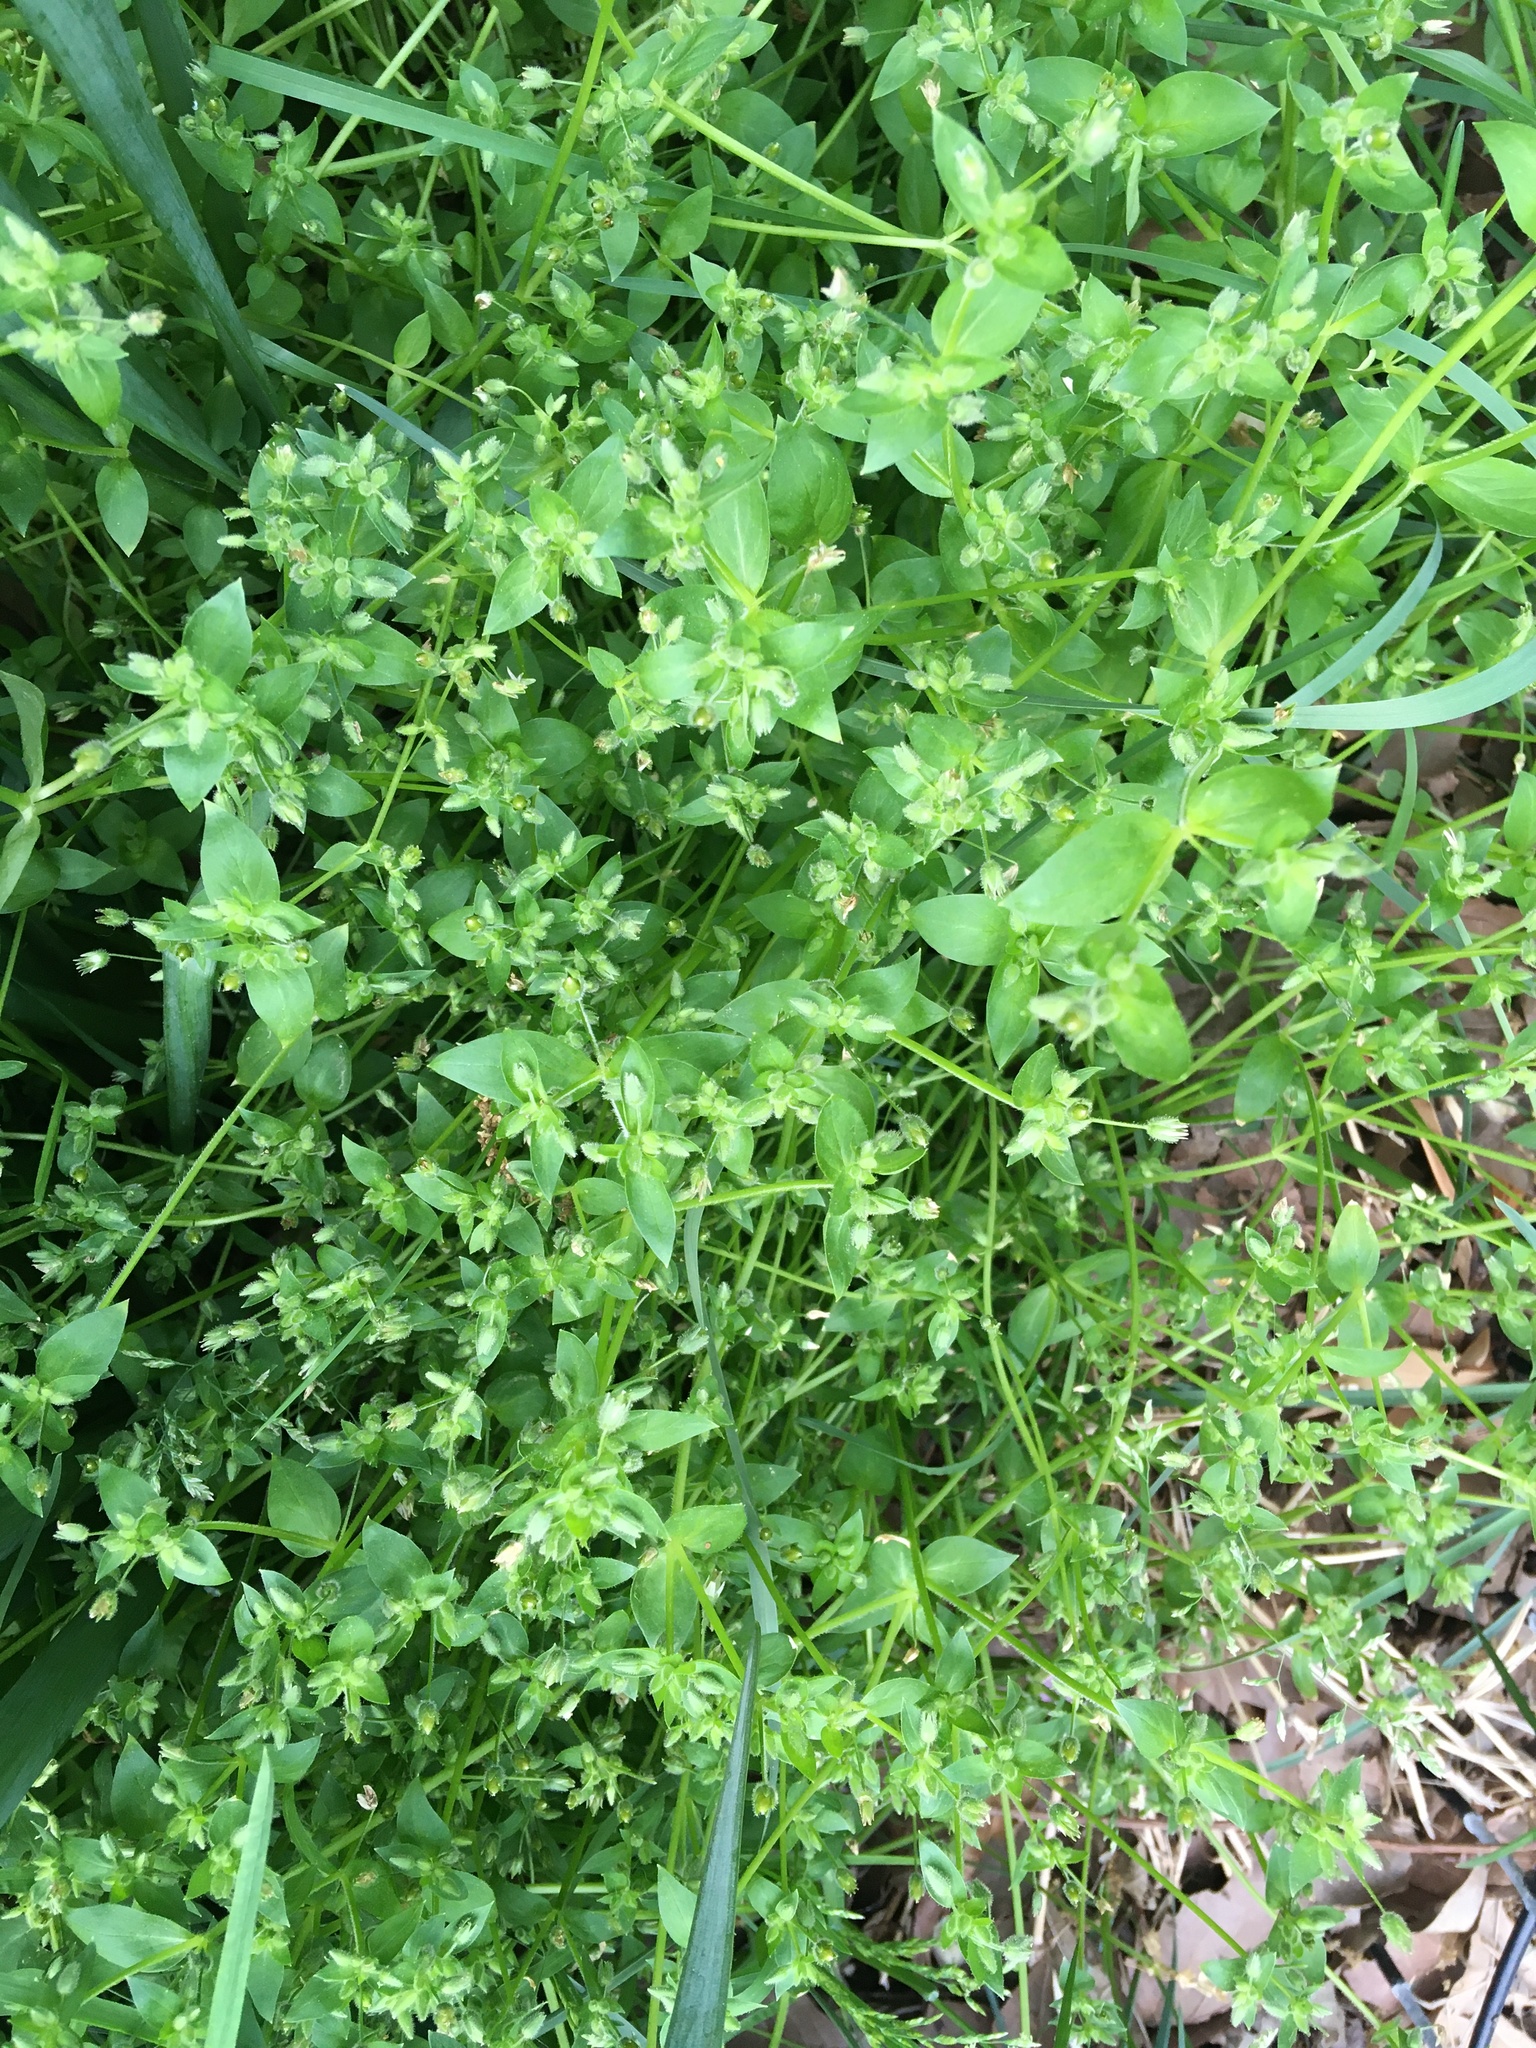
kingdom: Plantae
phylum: Tracheophyta
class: Magnoliopsida
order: Caryophyllales
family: Caryophyllaceae
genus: Stellaria
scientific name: Stellaria media
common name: Common chickweed
